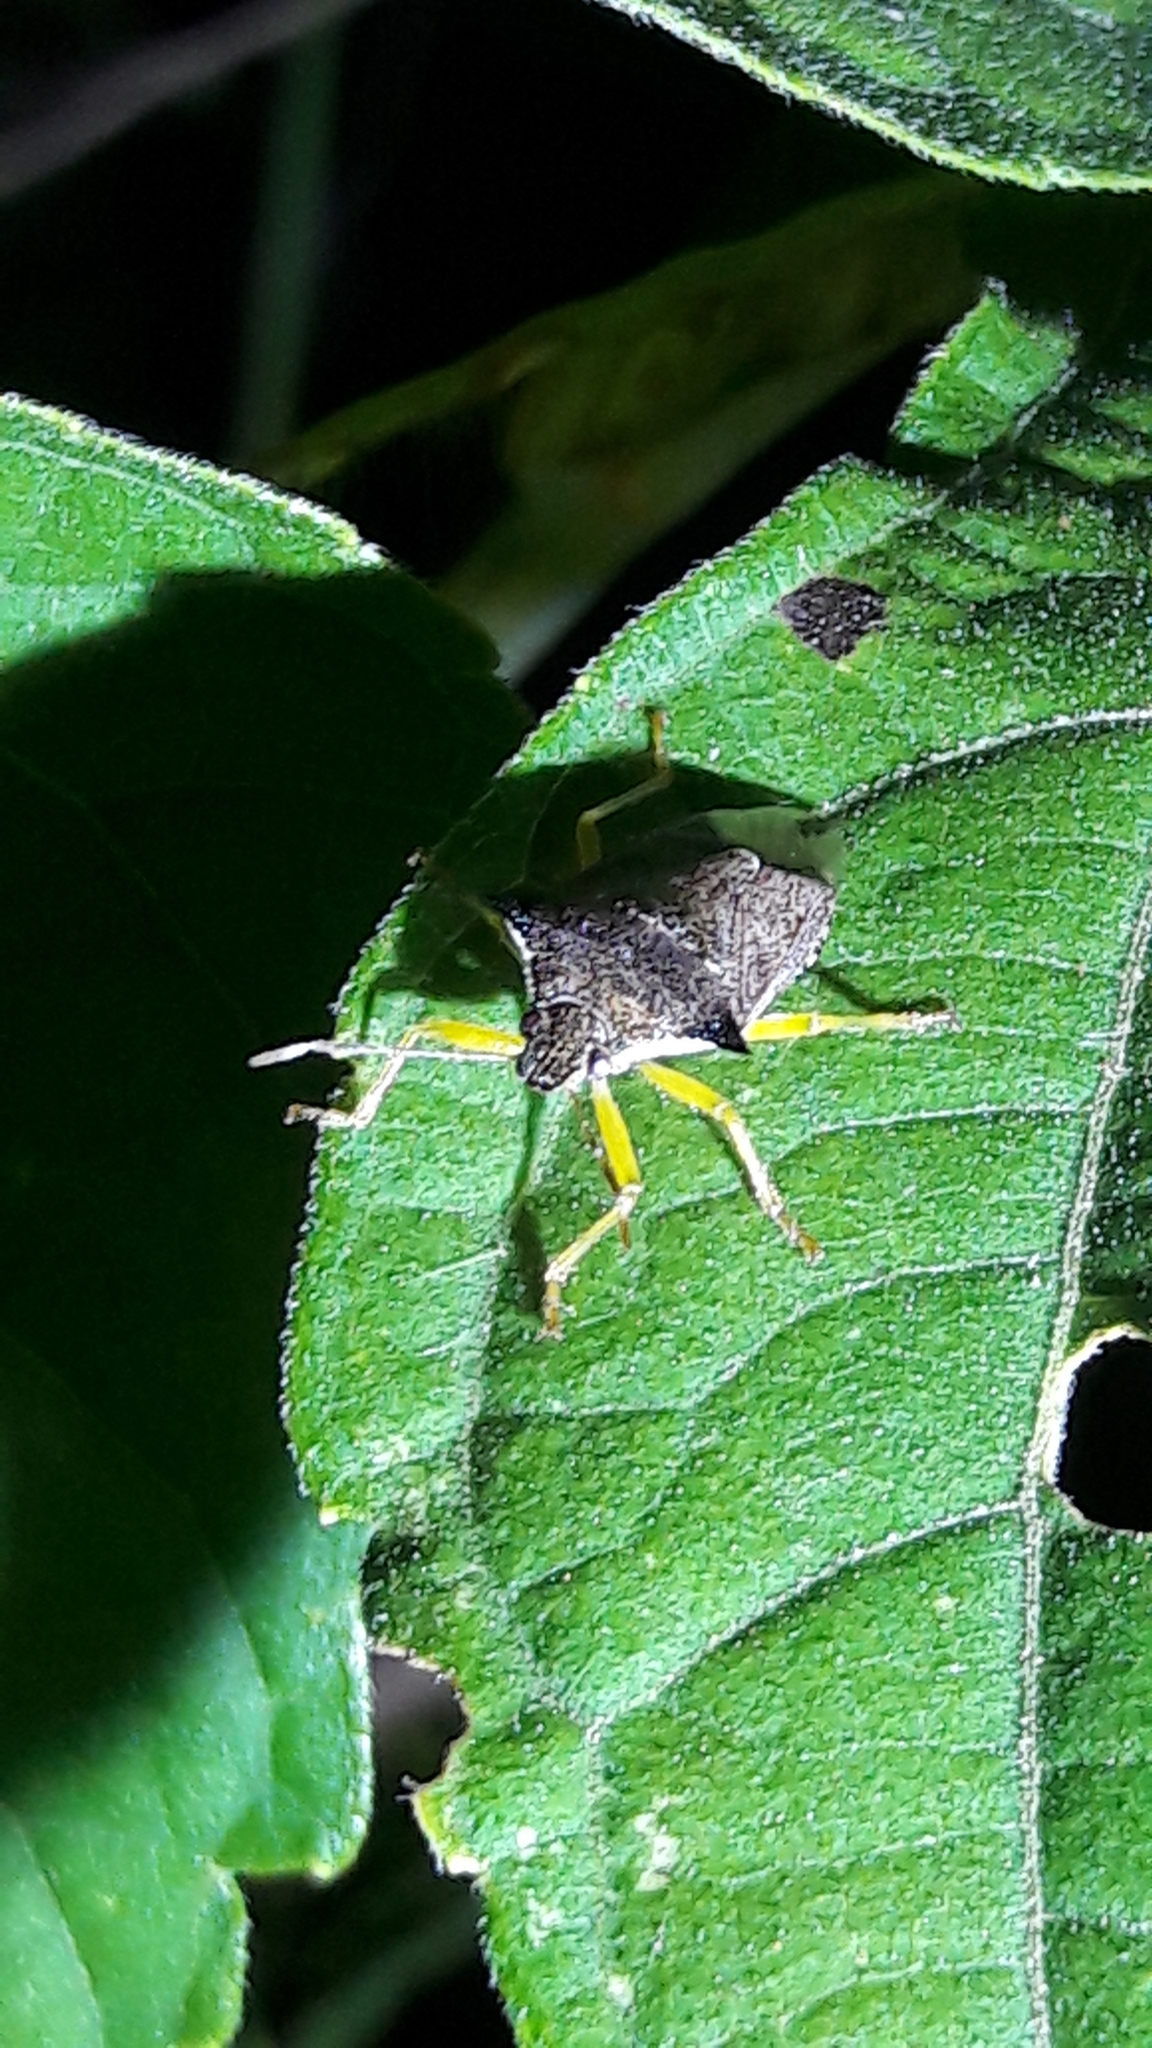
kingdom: Animalia
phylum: Arthropoda
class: Insecta
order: Hemiptera
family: Pentatomidae
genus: Podisus
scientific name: Podisus nigrispinus
